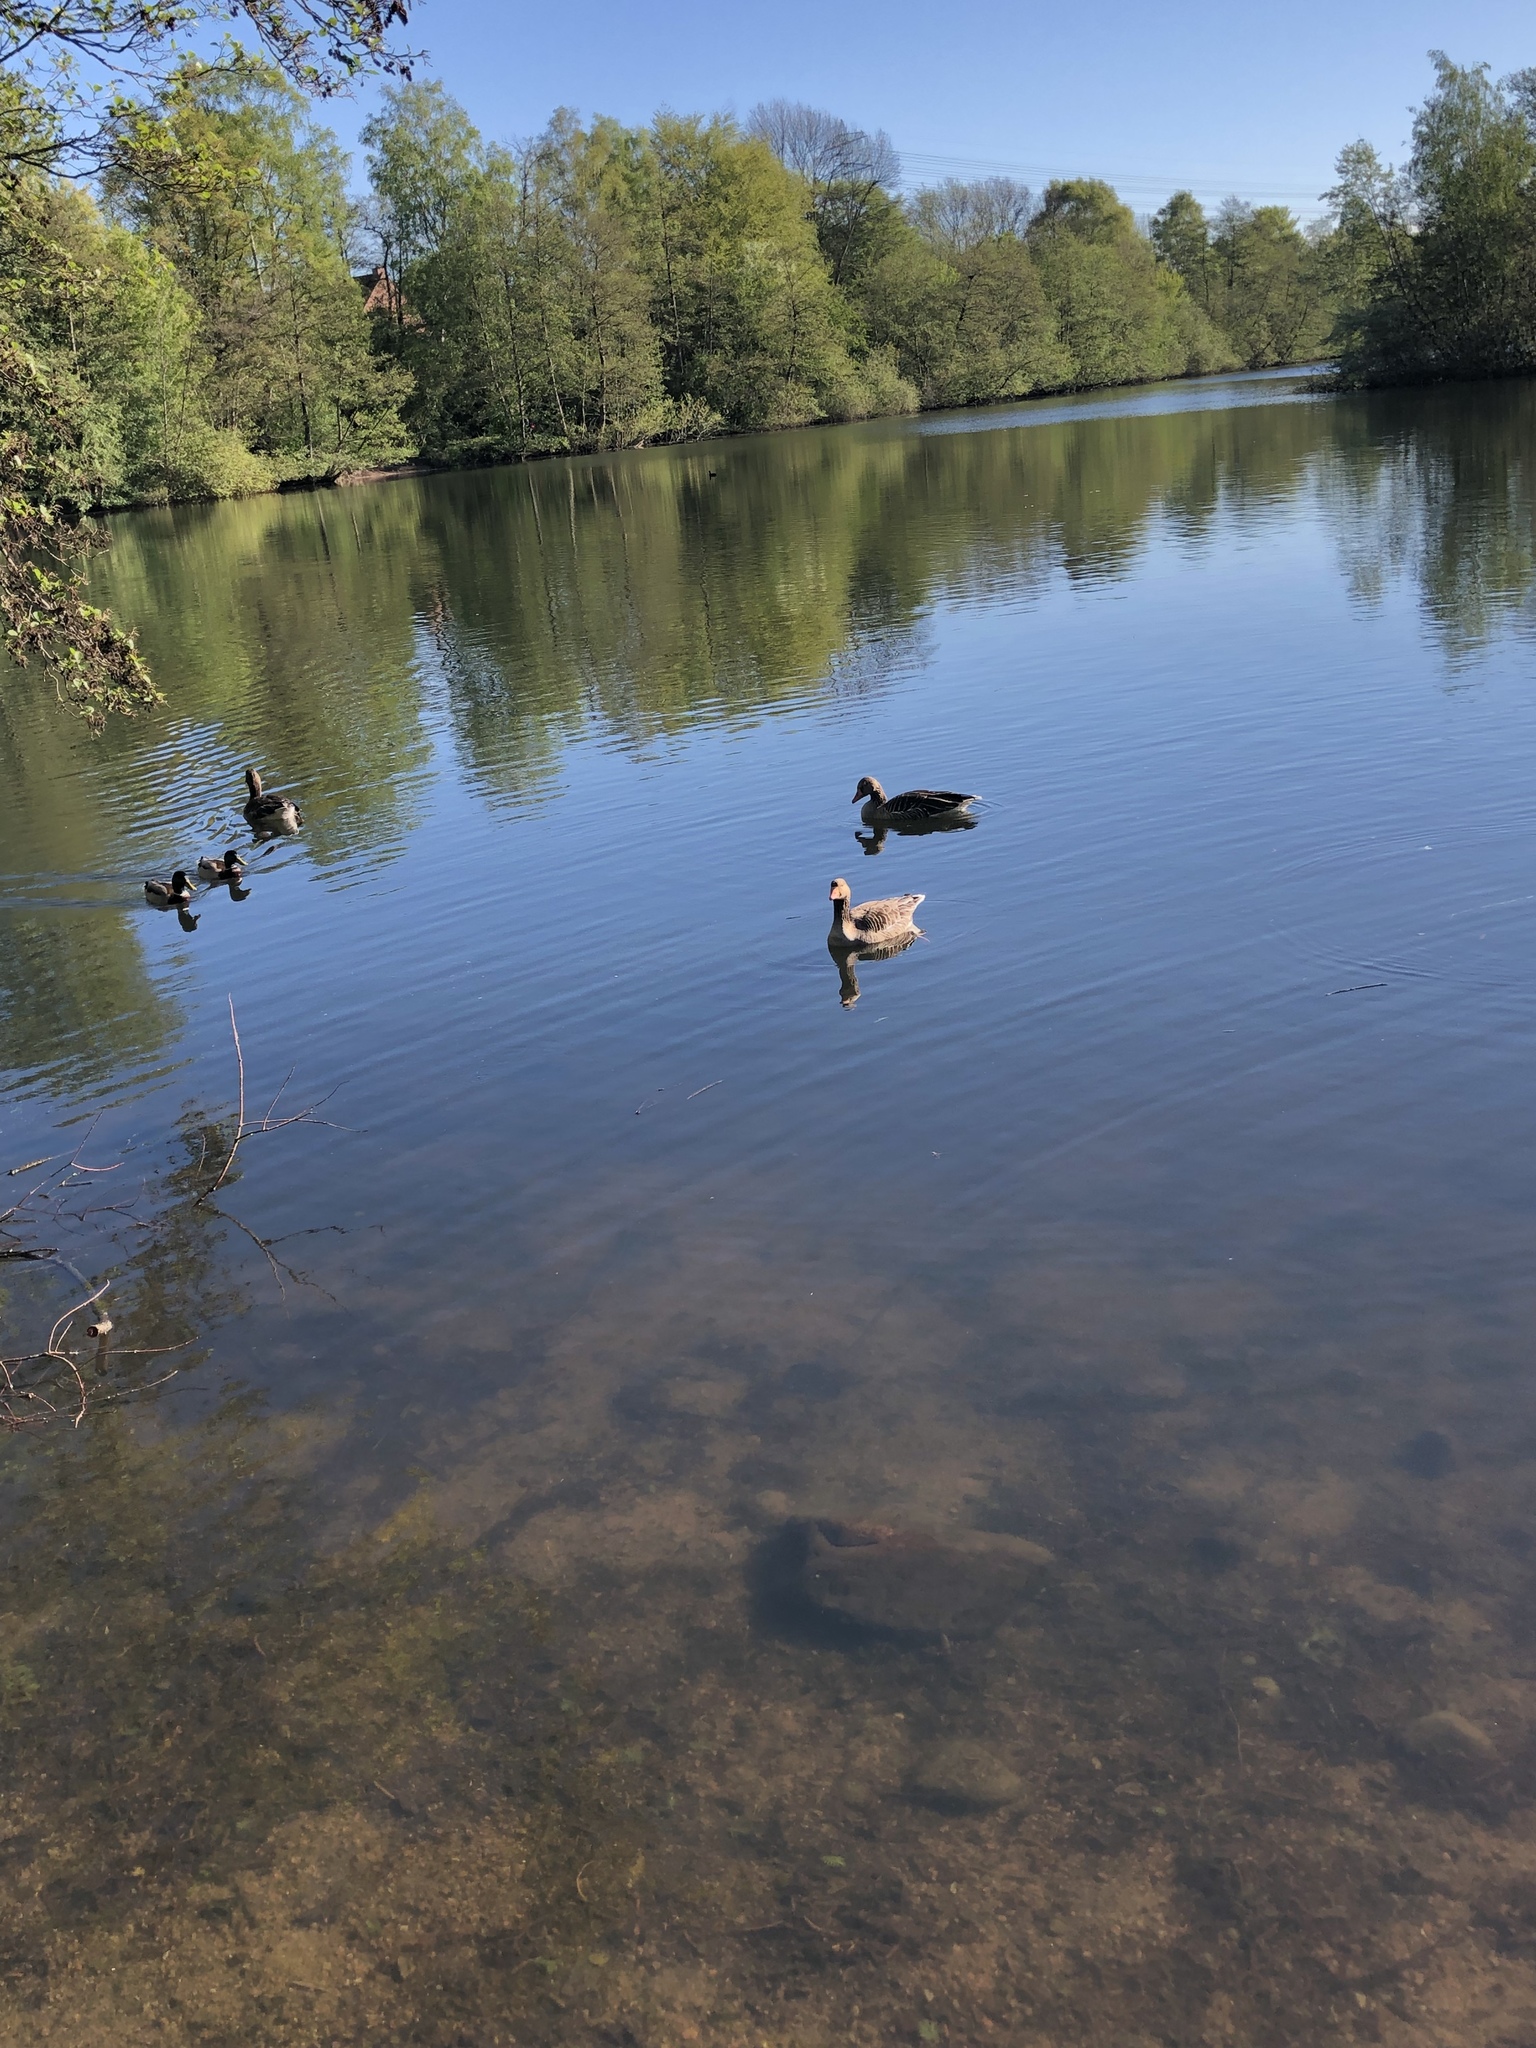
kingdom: Animalia
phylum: Chordata
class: Aves
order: Anseriformes
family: Anatidae
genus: Anser
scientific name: Anser anser
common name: Greylag goose
